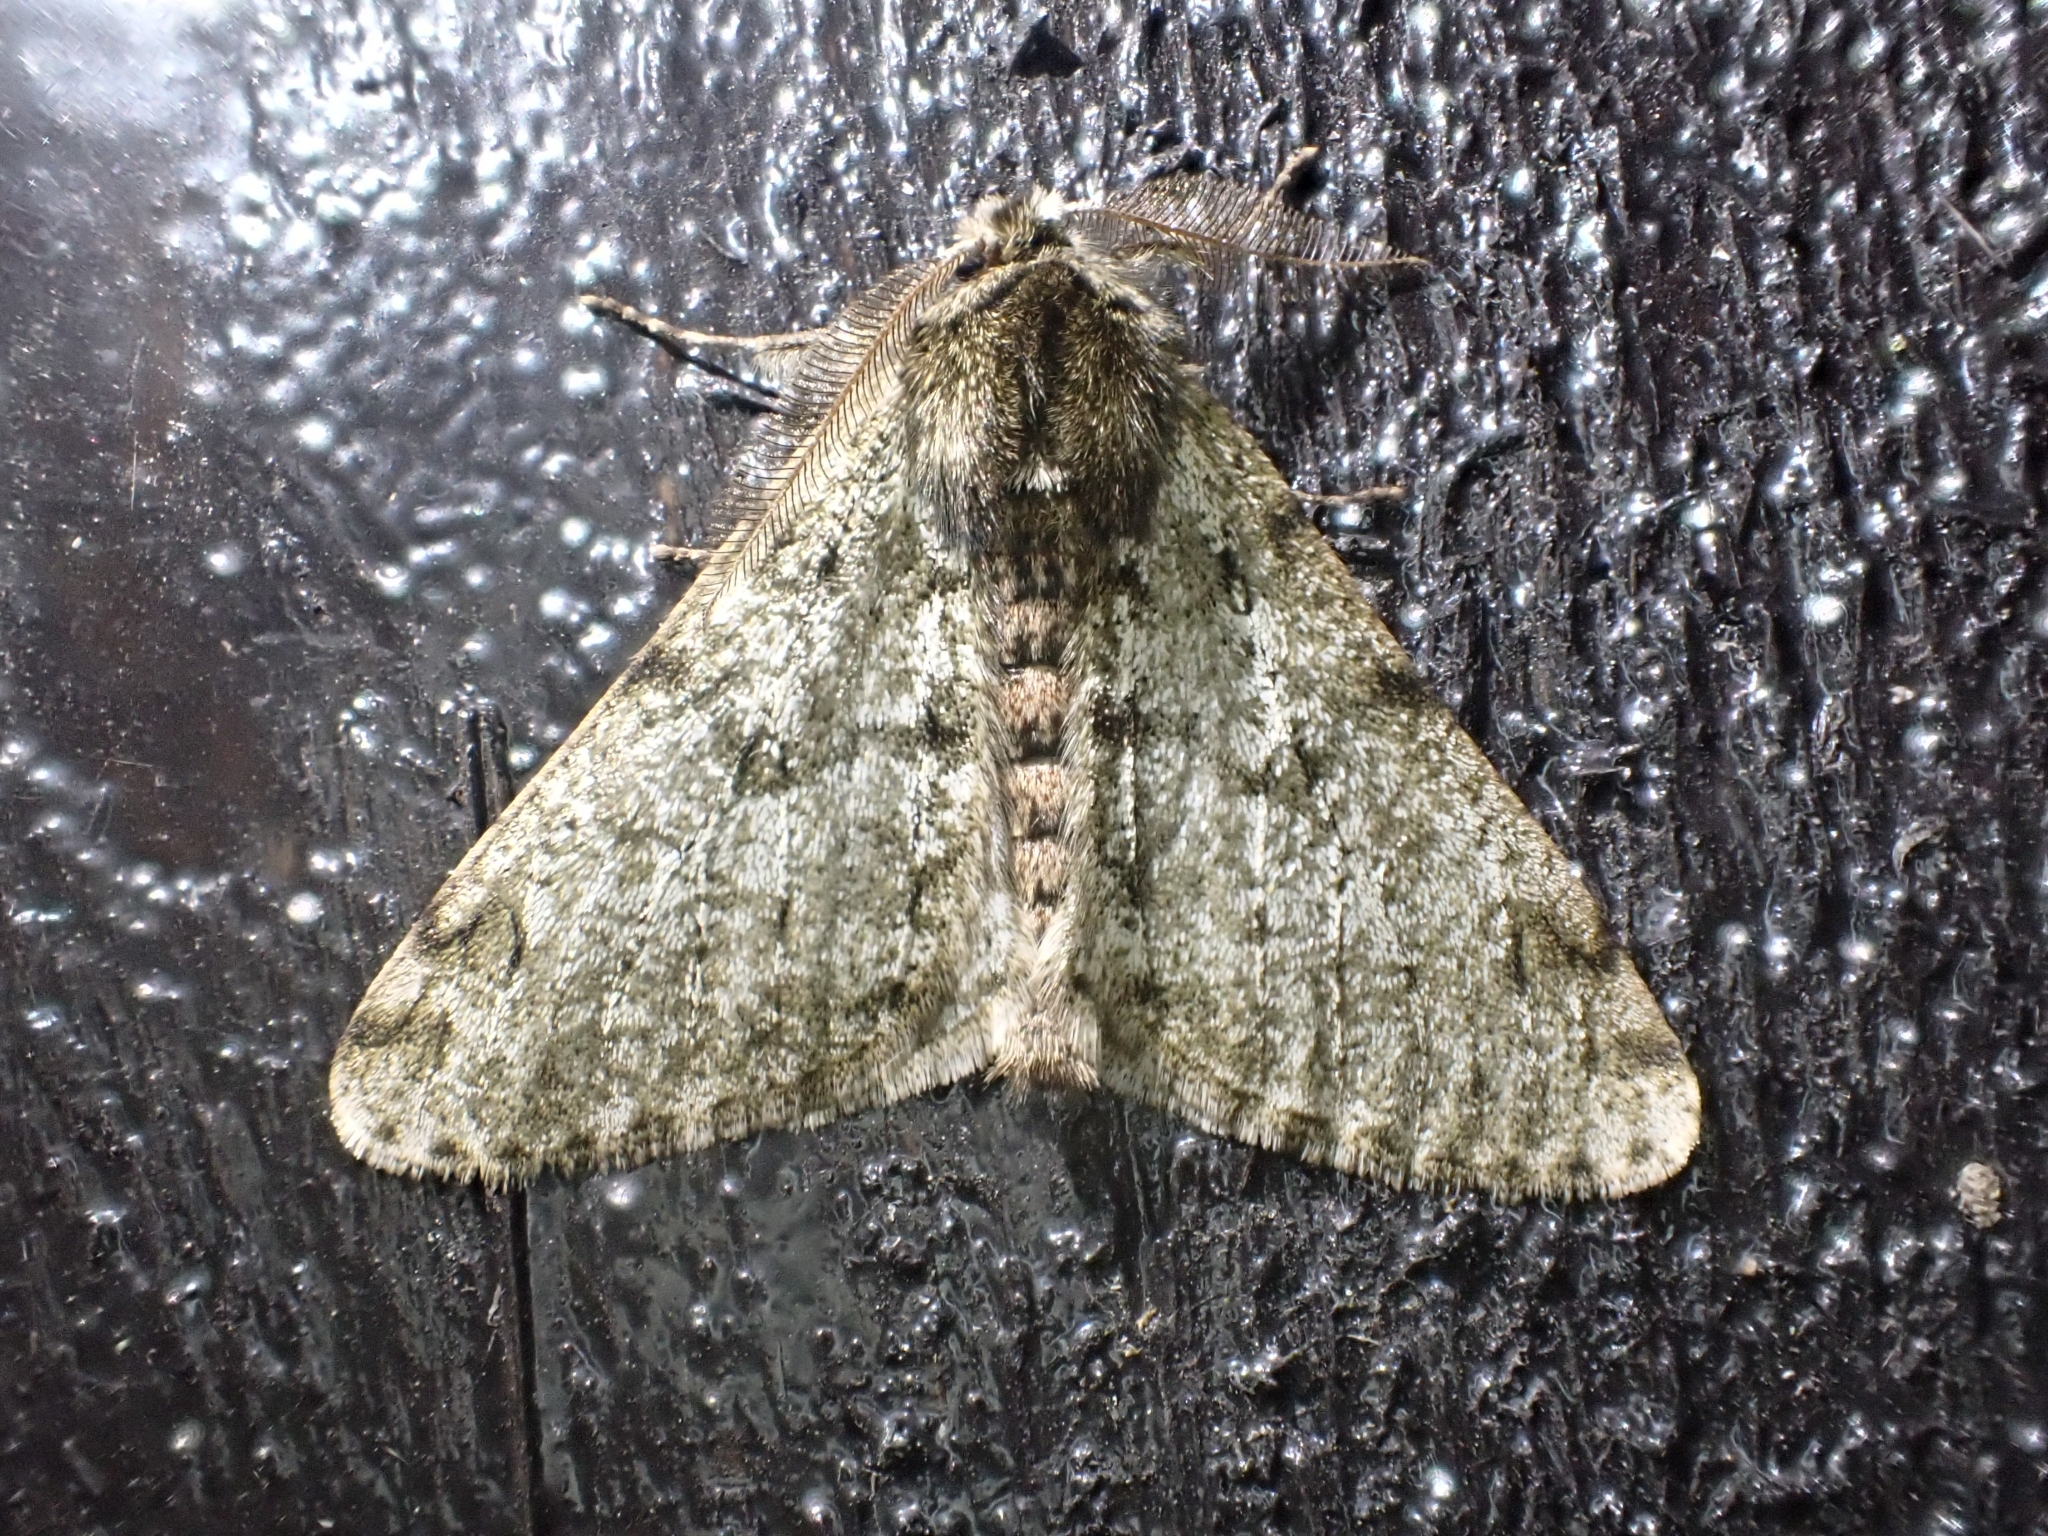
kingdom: Animalia
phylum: Arthropoda
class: Insecta
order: Lepidoptera
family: Geometridae
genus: Phigalia
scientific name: Phigalia pilosaria
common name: Pale brindled beauty
